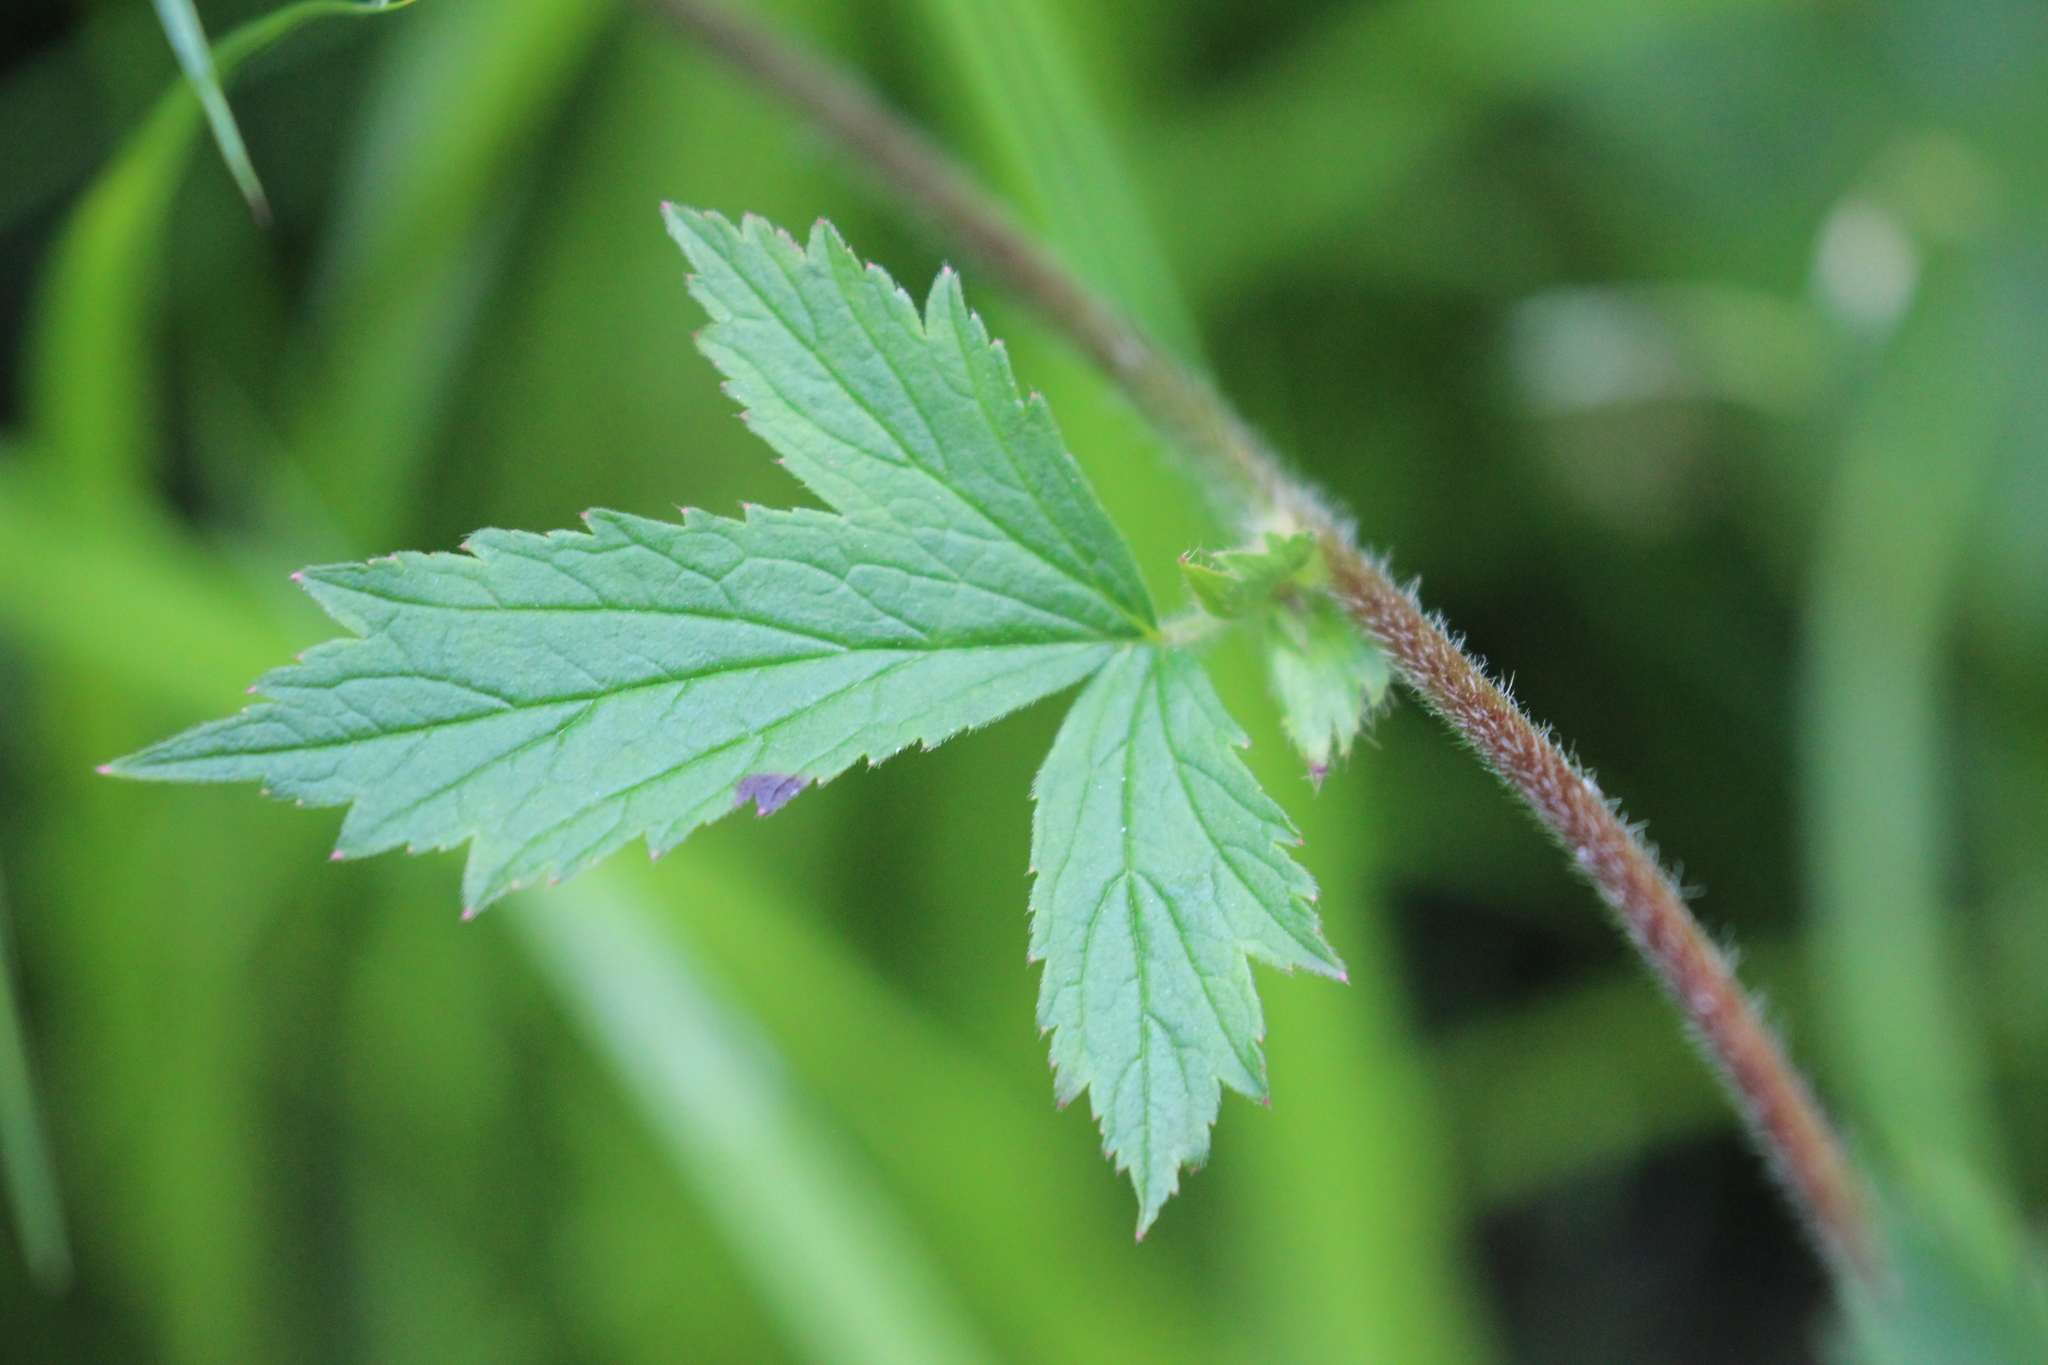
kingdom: Plantae
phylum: Tracheophyta
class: Magnoliopsida
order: Rosales
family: Rosaceae
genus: Geum
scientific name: Geum rivale
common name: Water avens
